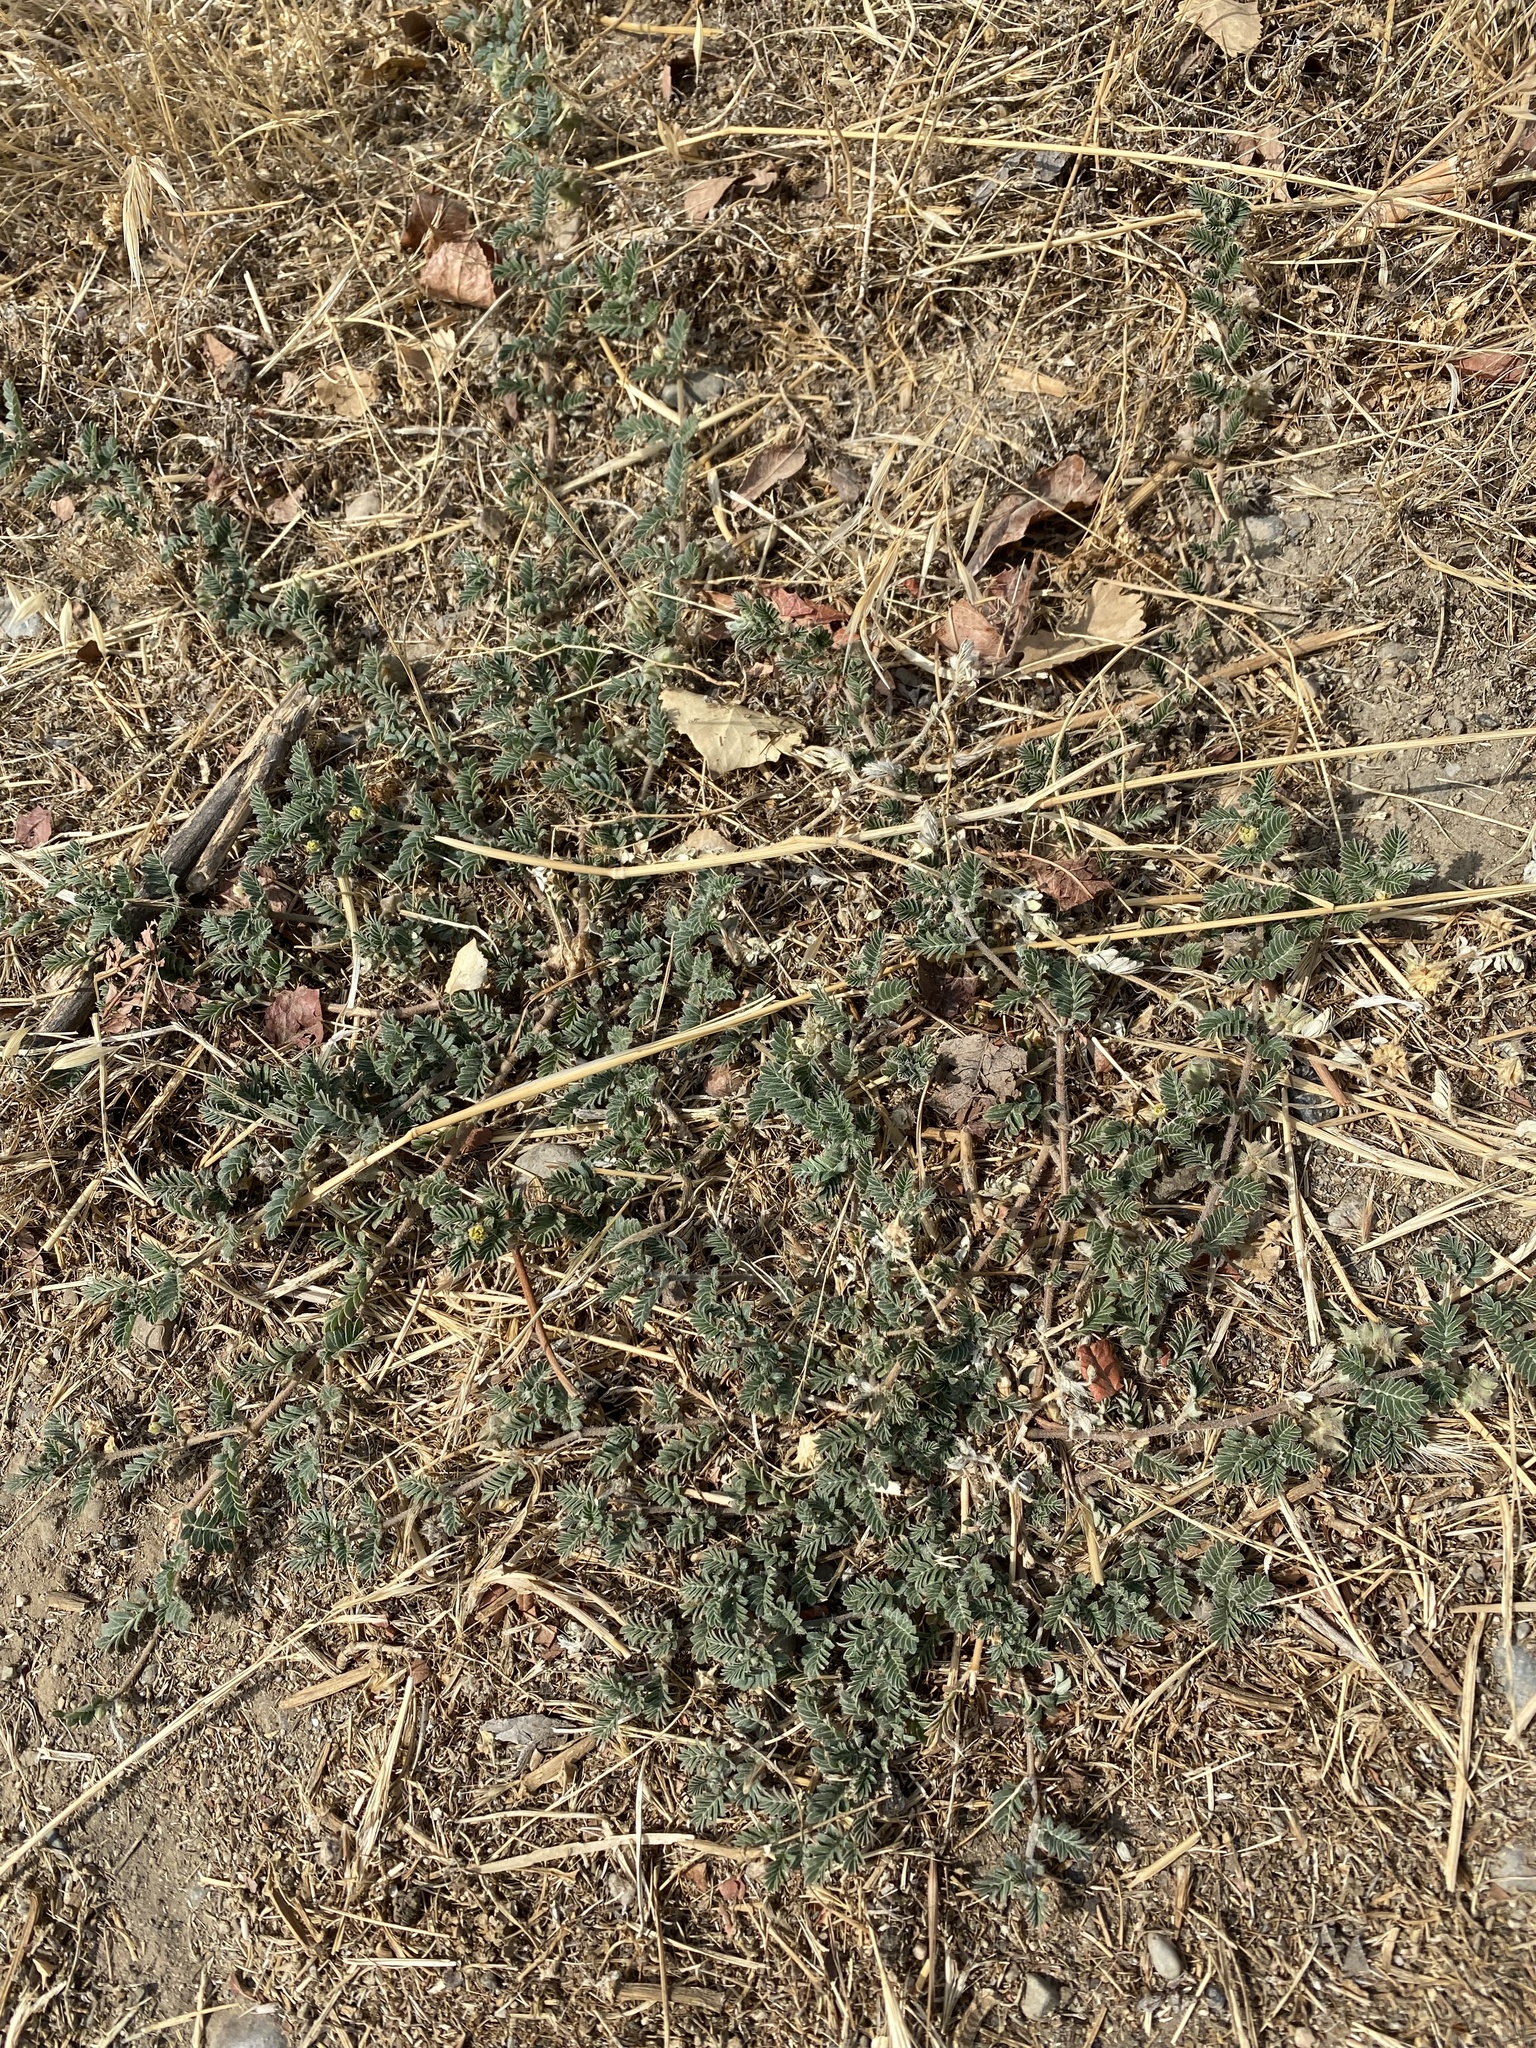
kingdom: Plantae
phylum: Tracheophyta
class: Magnoliopsida
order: Zygophyllales
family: Zygophyllaceae
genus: Tribulus
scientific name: Tribulus terrestris
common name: Puncturevine
